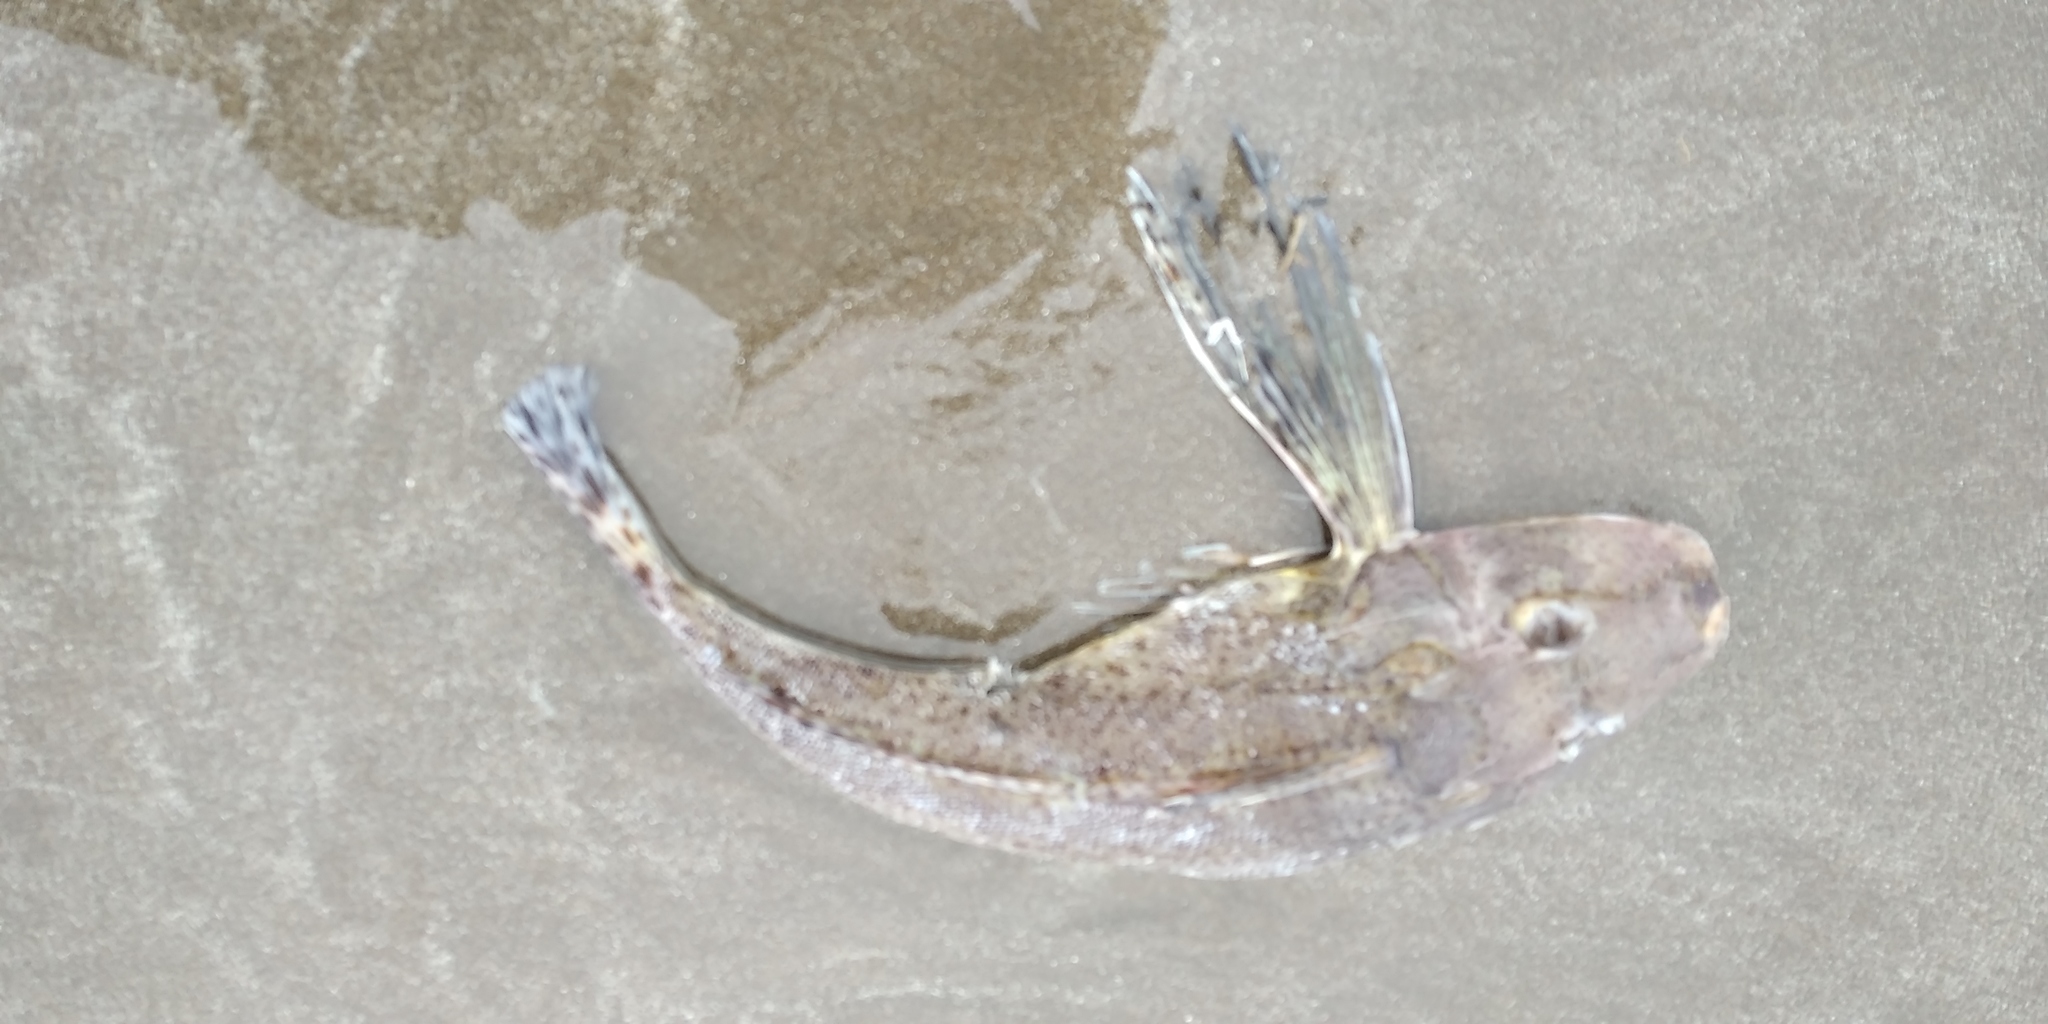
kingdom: Animalia
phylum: Chordata
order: Scorpaeniformes
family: Triglidae
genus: Prionotus
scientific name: Prionotus nudigula
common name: Atlantic searobin
